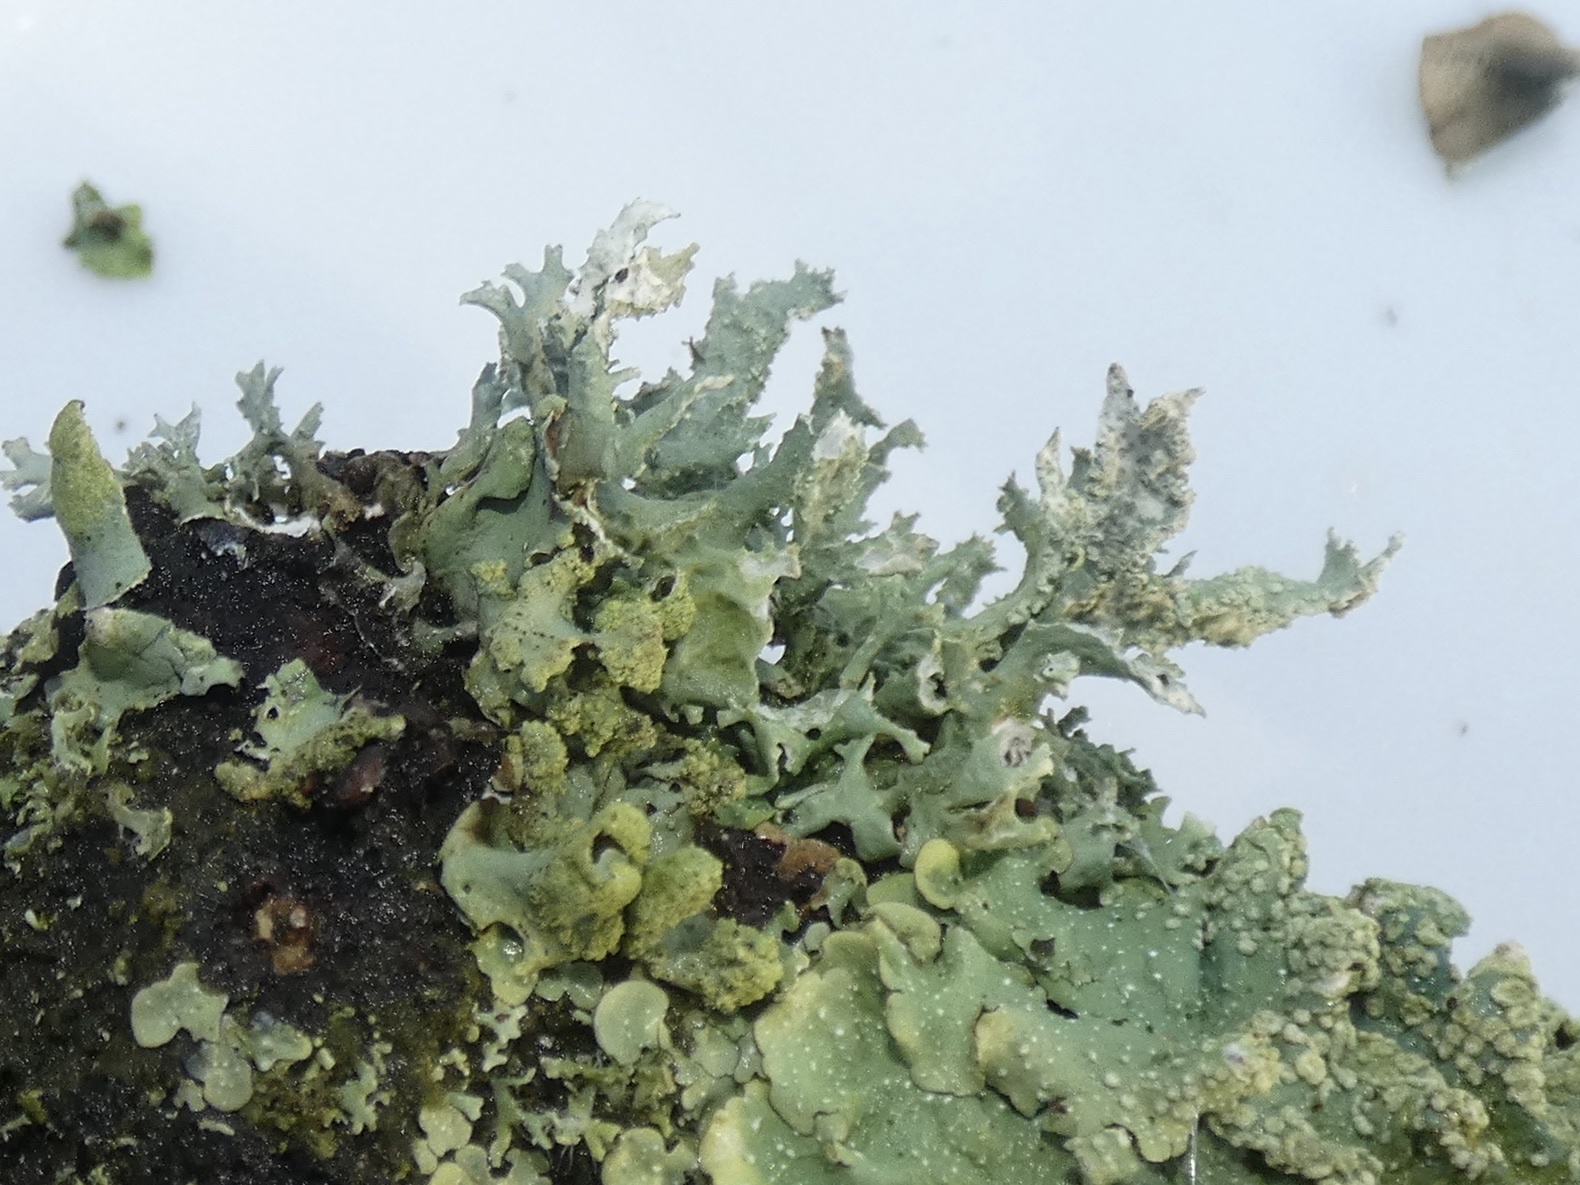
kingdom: Fungi
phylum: Ascomycota
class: Lecanoromycetes
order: Lecanorales
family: Parmeliaceae
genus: Evernia
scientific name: Evernia prunastri
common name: Oak moss
